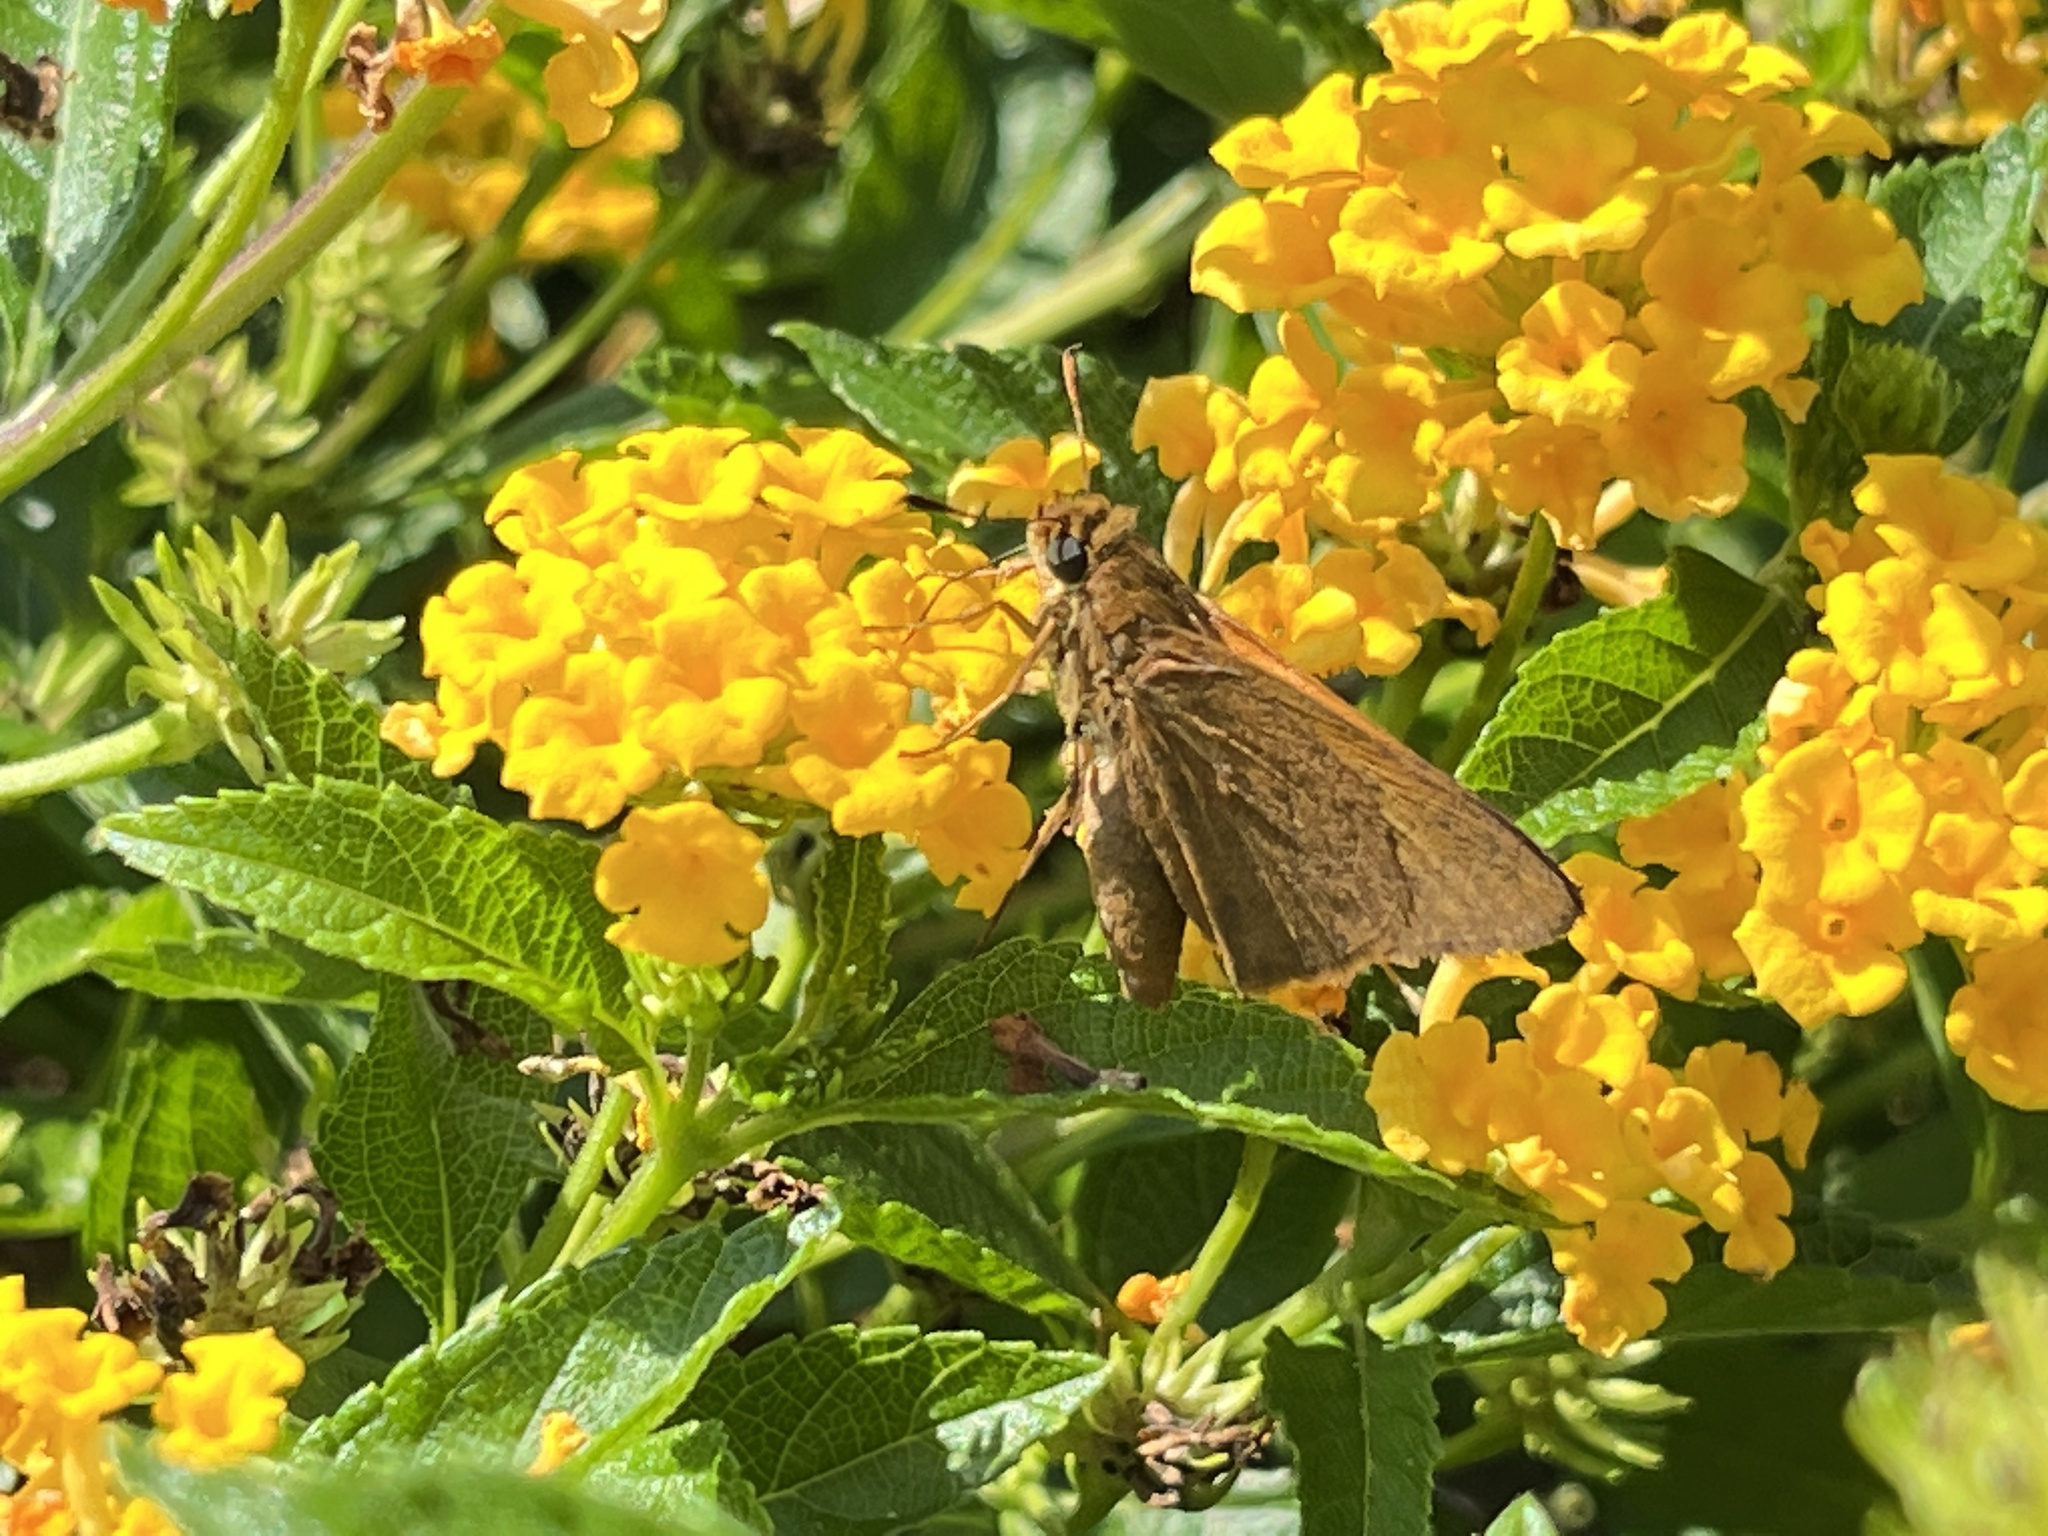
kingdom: Animalia
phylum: Arthropoda
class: Insecta
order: Lepidoptera
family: Hesperiidae
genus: Euphyes
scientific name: Euphyes pilatka
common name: Palatka skipper
